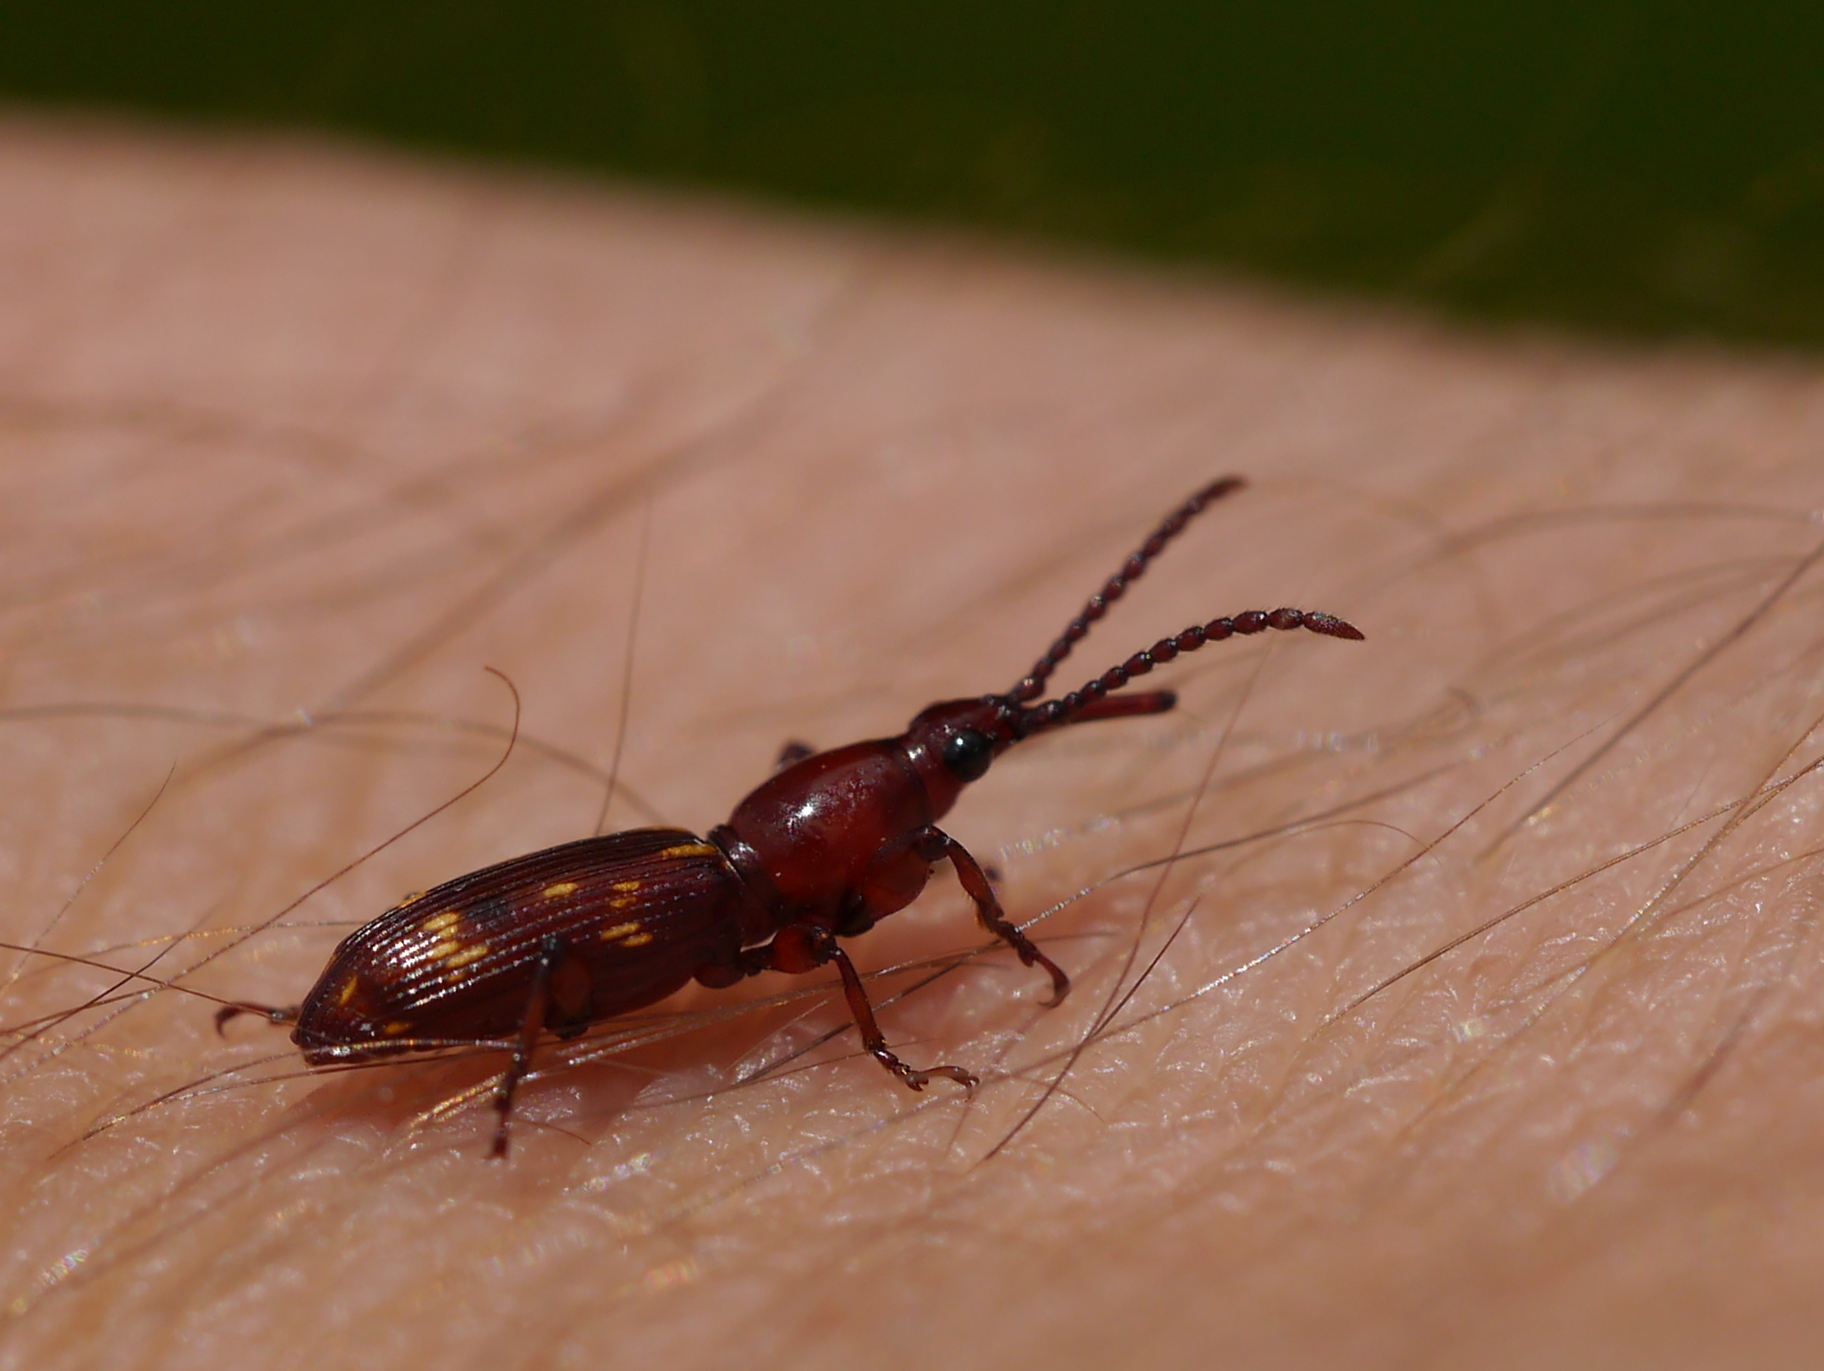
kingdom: Animalia
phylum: Arthropoda
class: Insecta
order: Coleoptera
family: Brentidae
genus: Arrenodes
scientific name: Arrenodes minutus
